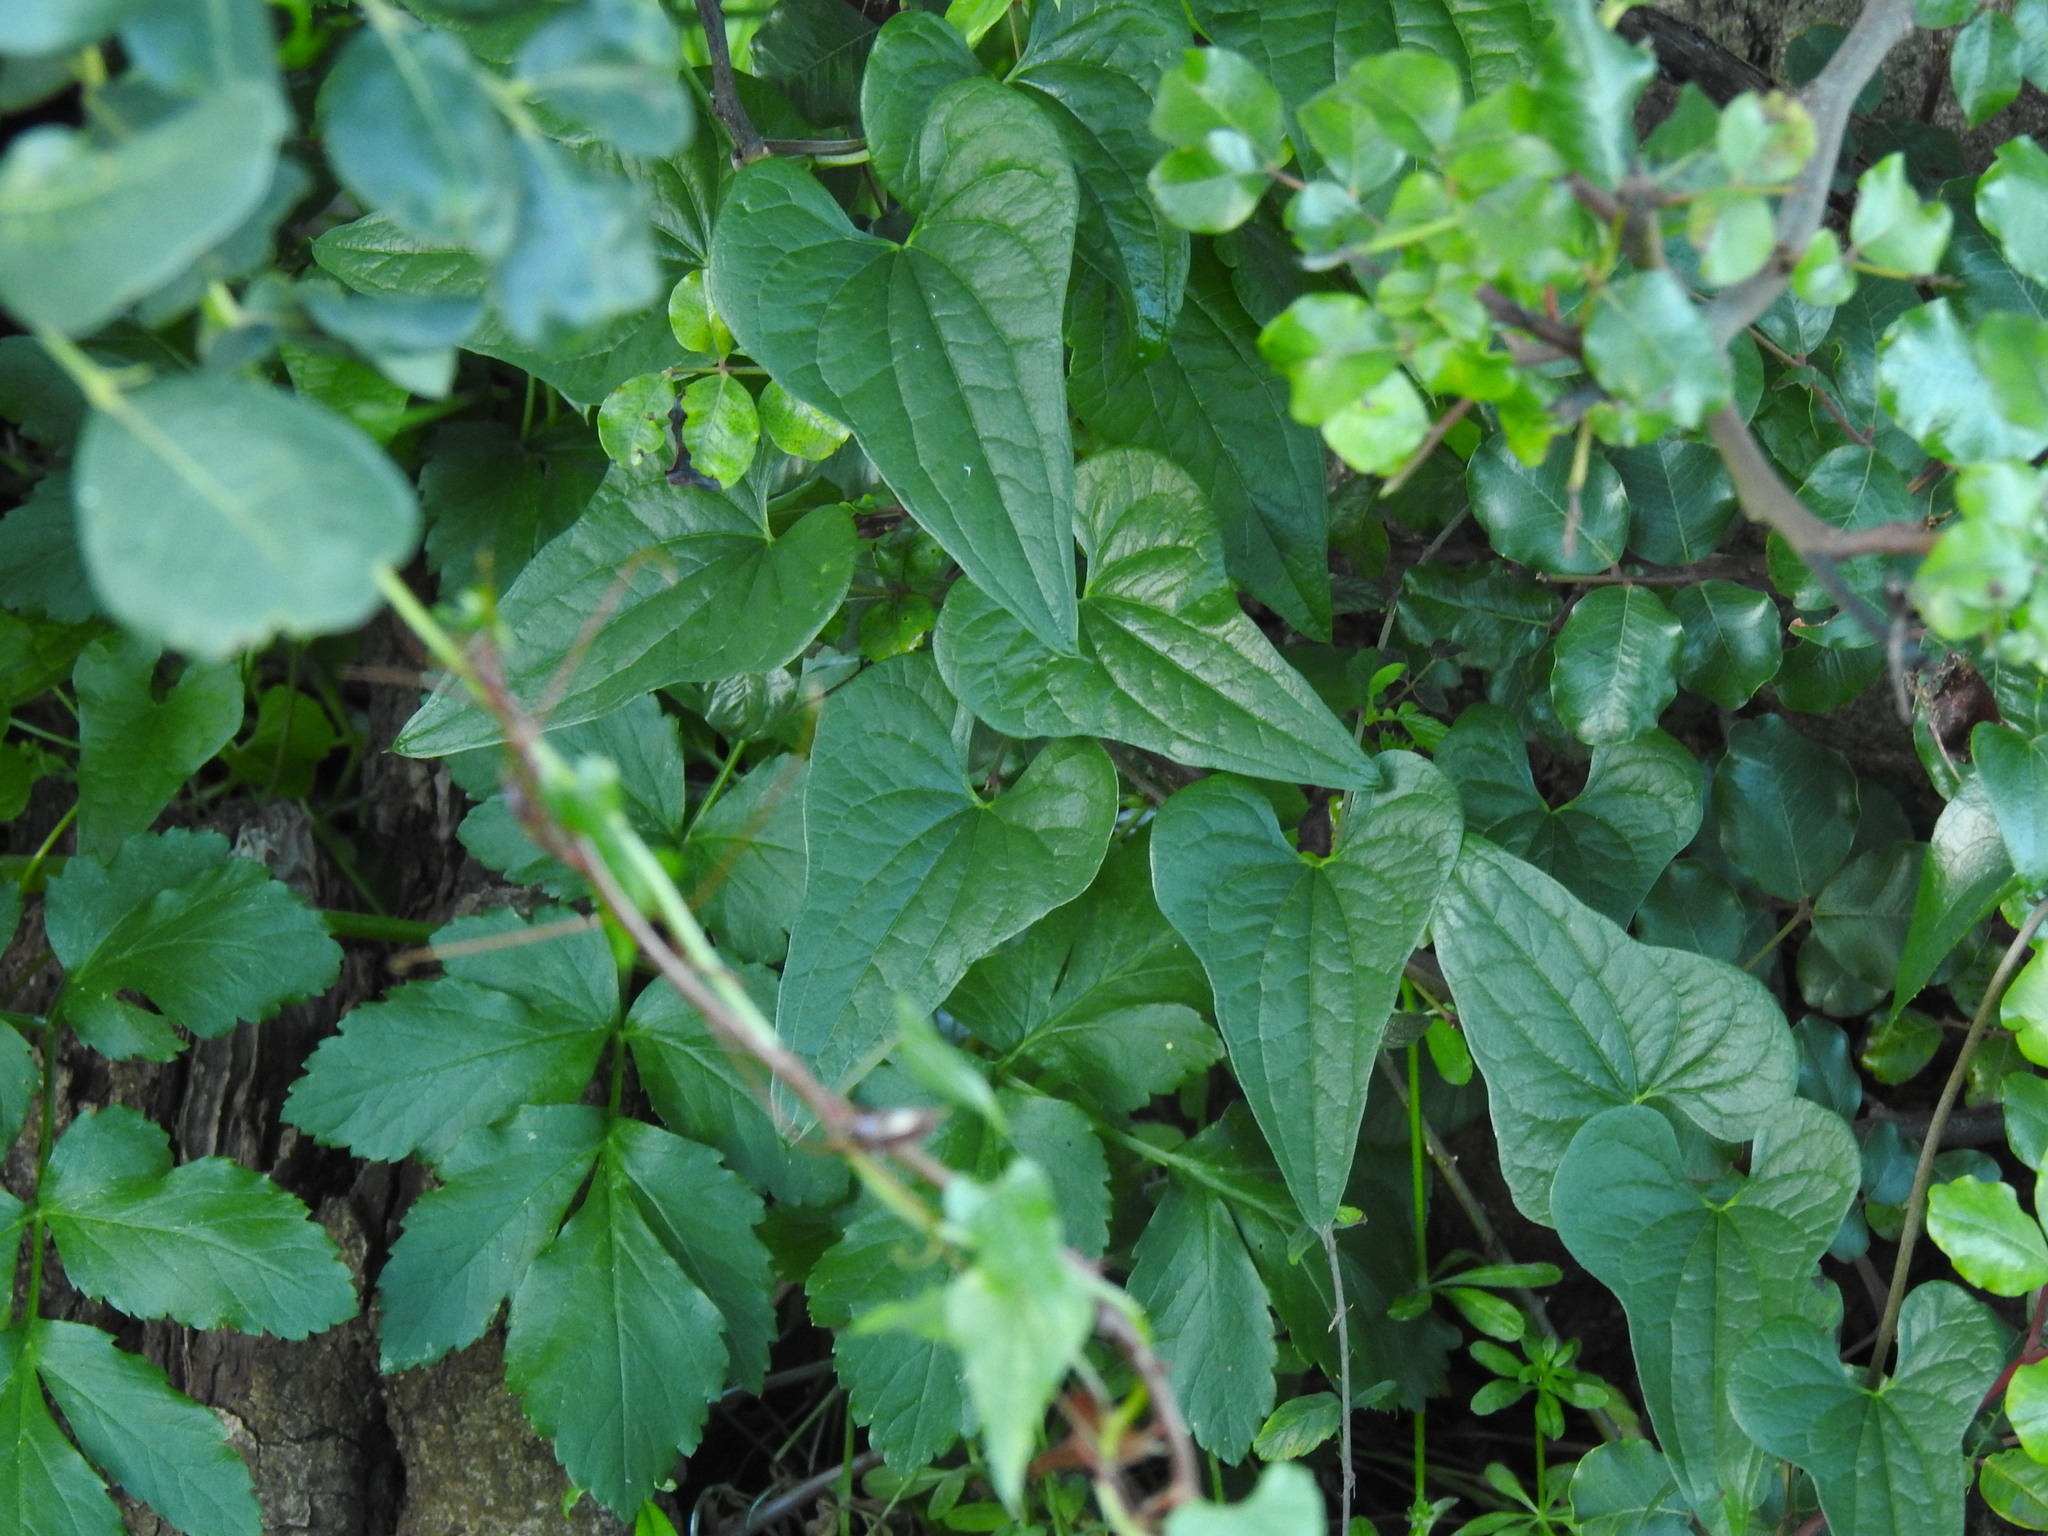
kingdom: Plantae
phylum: Tracheophyta
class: Liliopsida
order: Dioscoreales
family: Dioscoreaceae
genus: Dioscorea
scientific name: Dioscorea communis
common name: Black-bindweed
